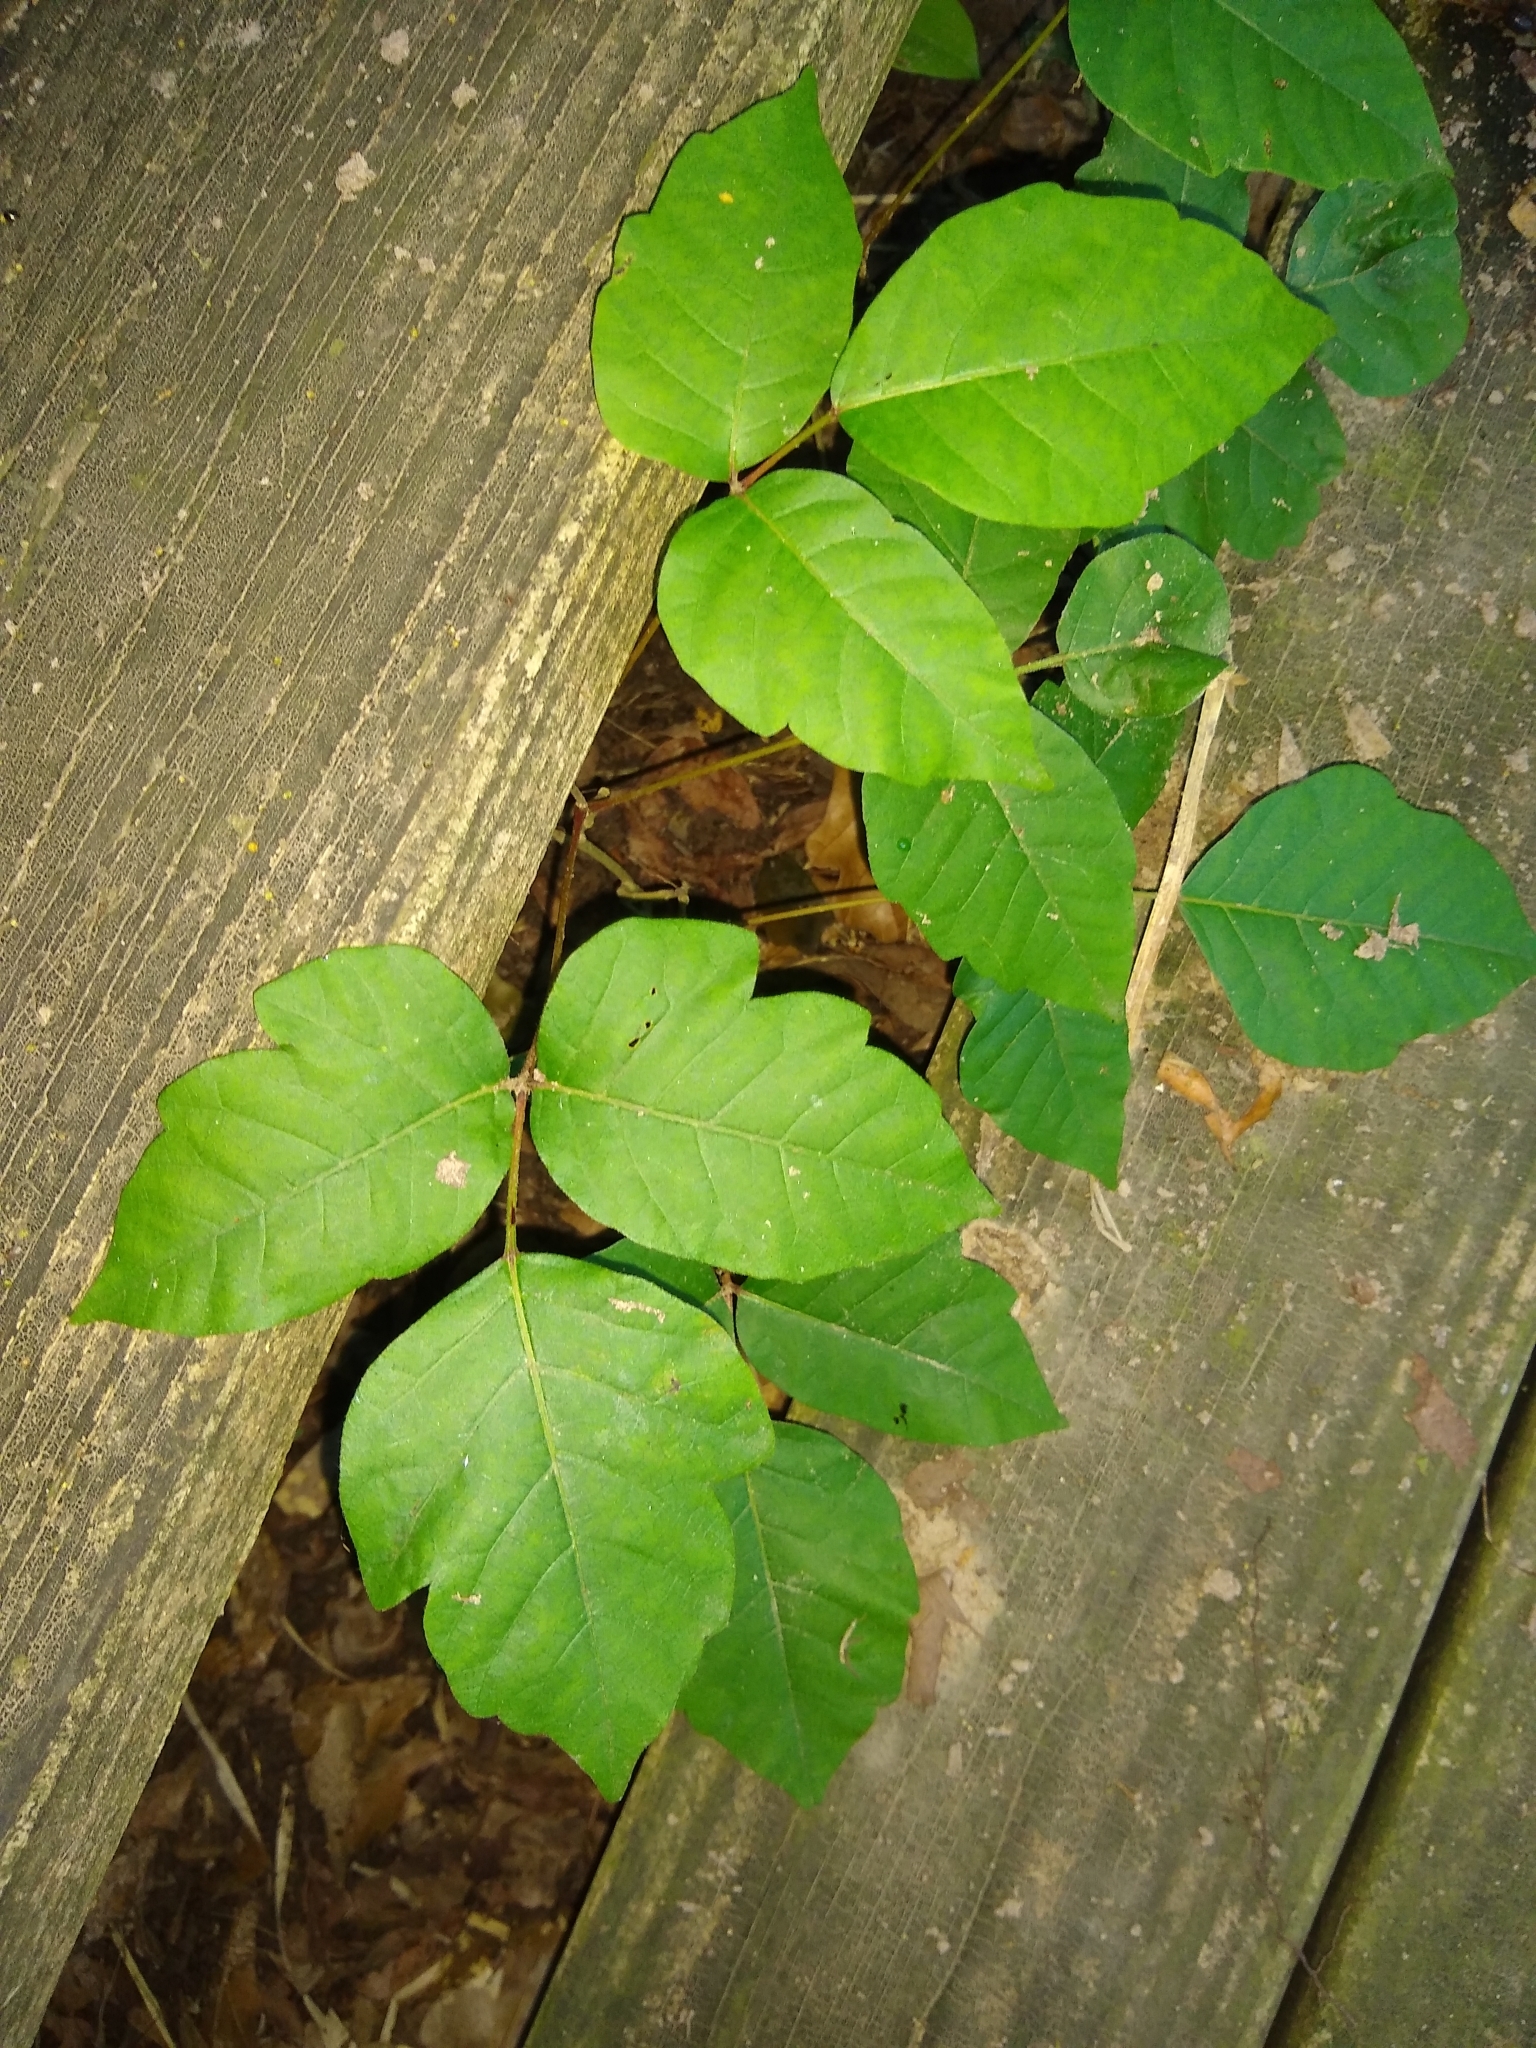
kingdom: Plantae
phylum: Tracheophyta
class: Magnoliopsida
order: Sapindales
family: Anacardiaceae
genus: Toxicodendron
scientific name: Toxicodendron radicans
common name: Poison ivy
